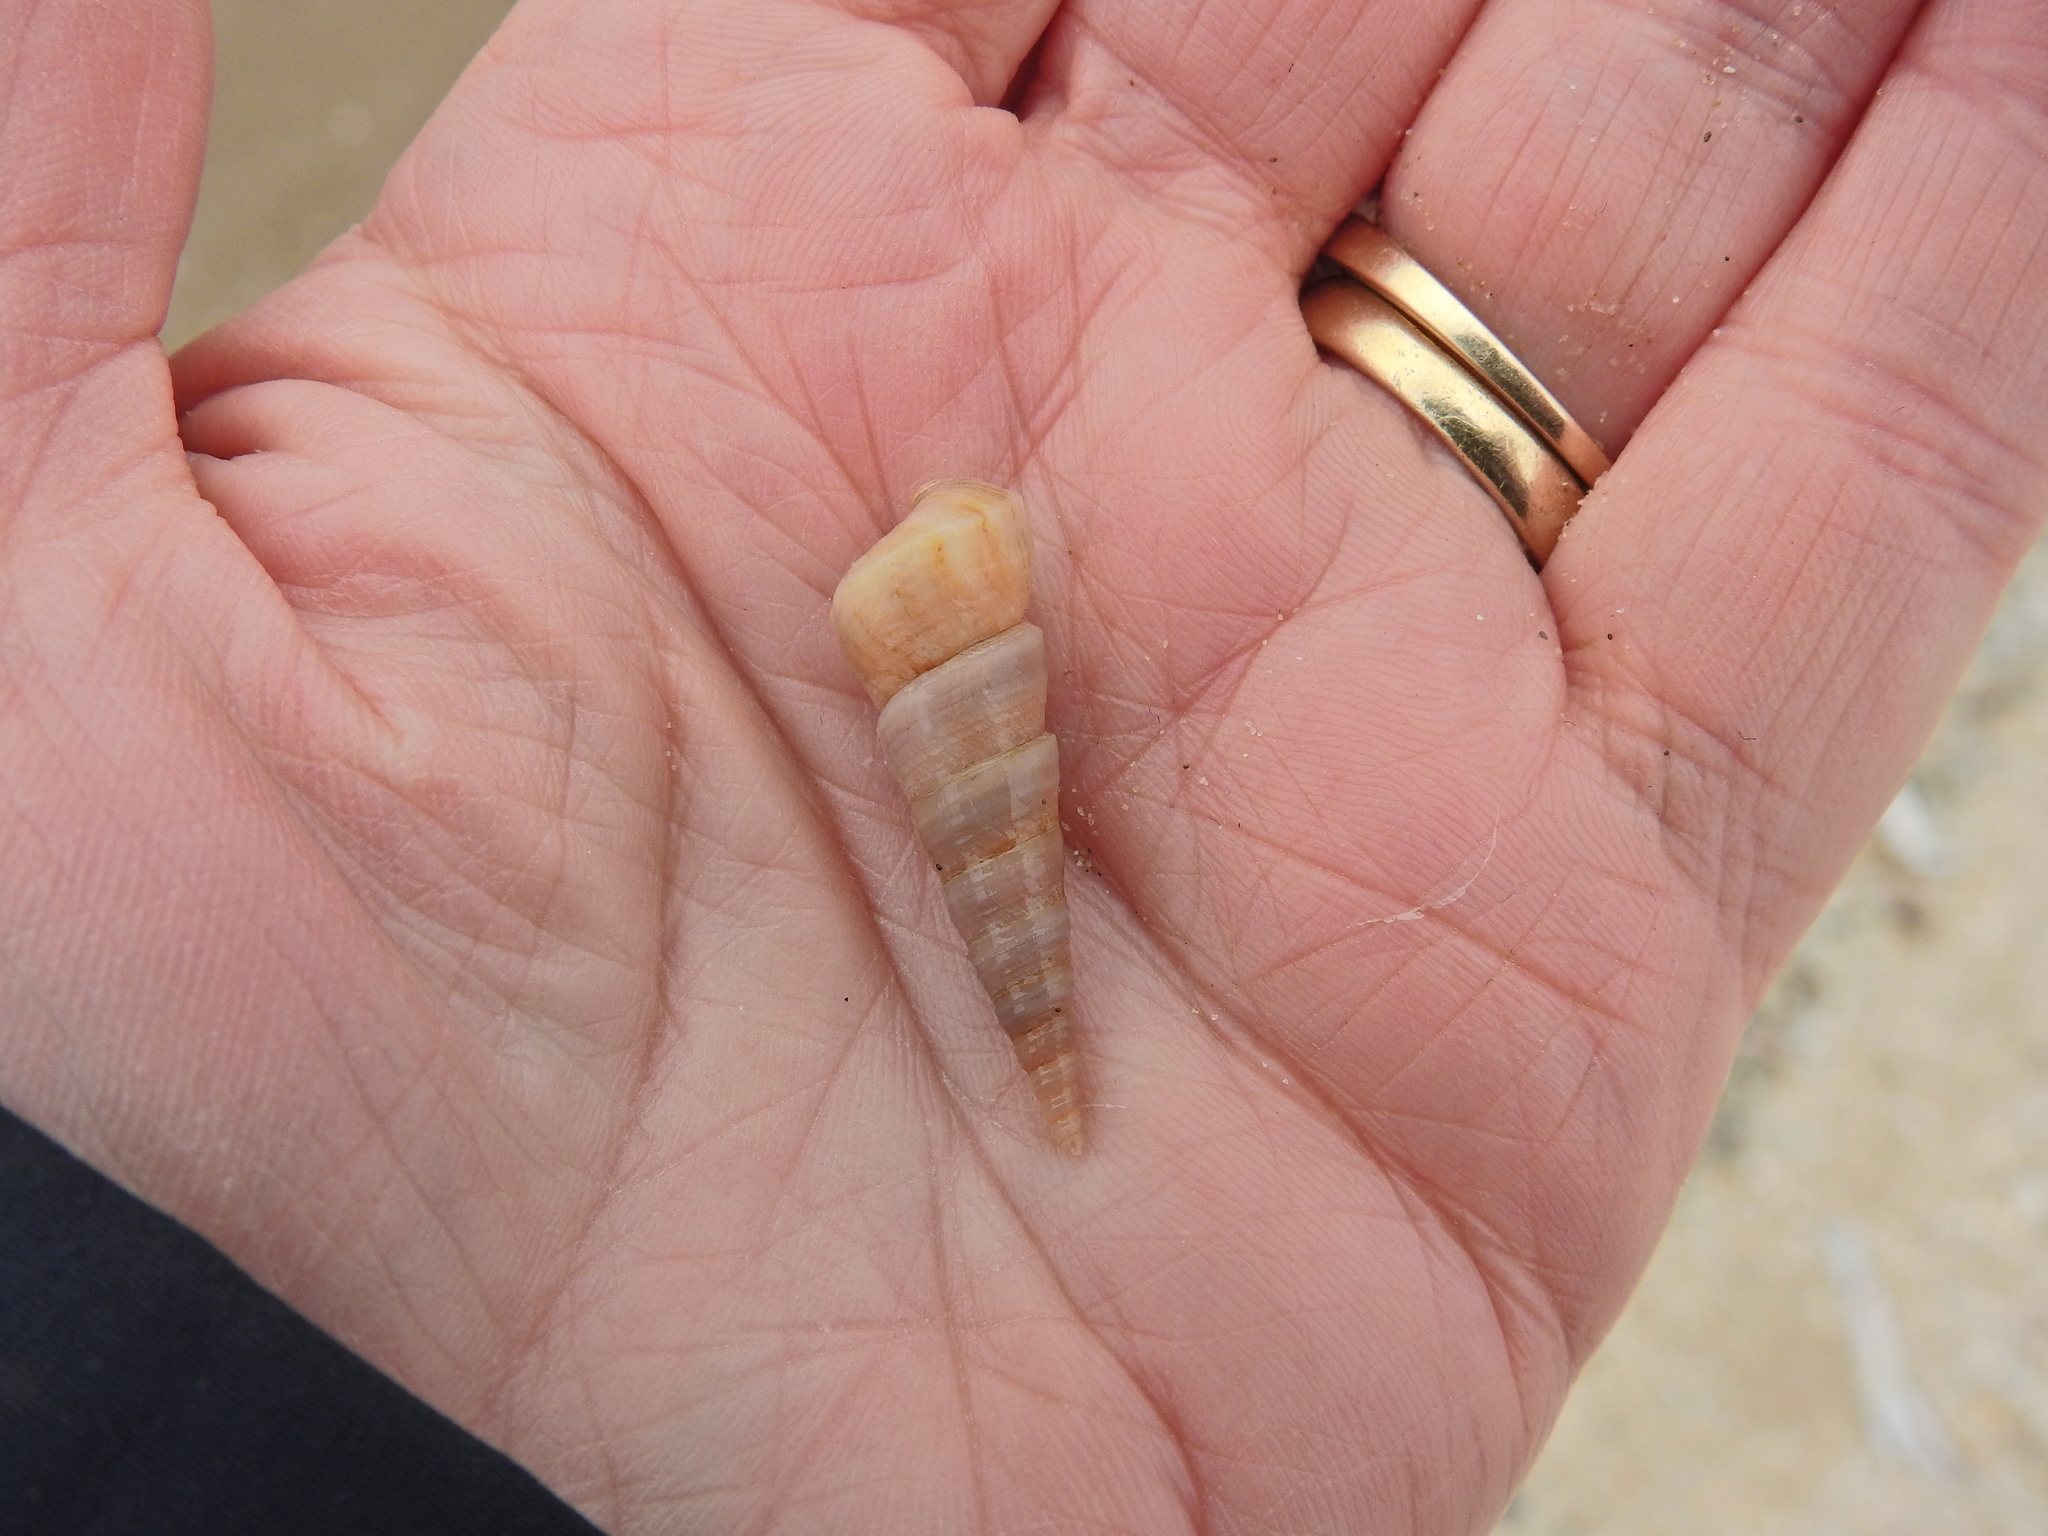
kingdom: Animalia
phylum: Mollusca
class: Gastropoda
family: Turritellidae
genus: Turritellinella
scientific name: Turritellinella tricarinata
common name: Auger shell
